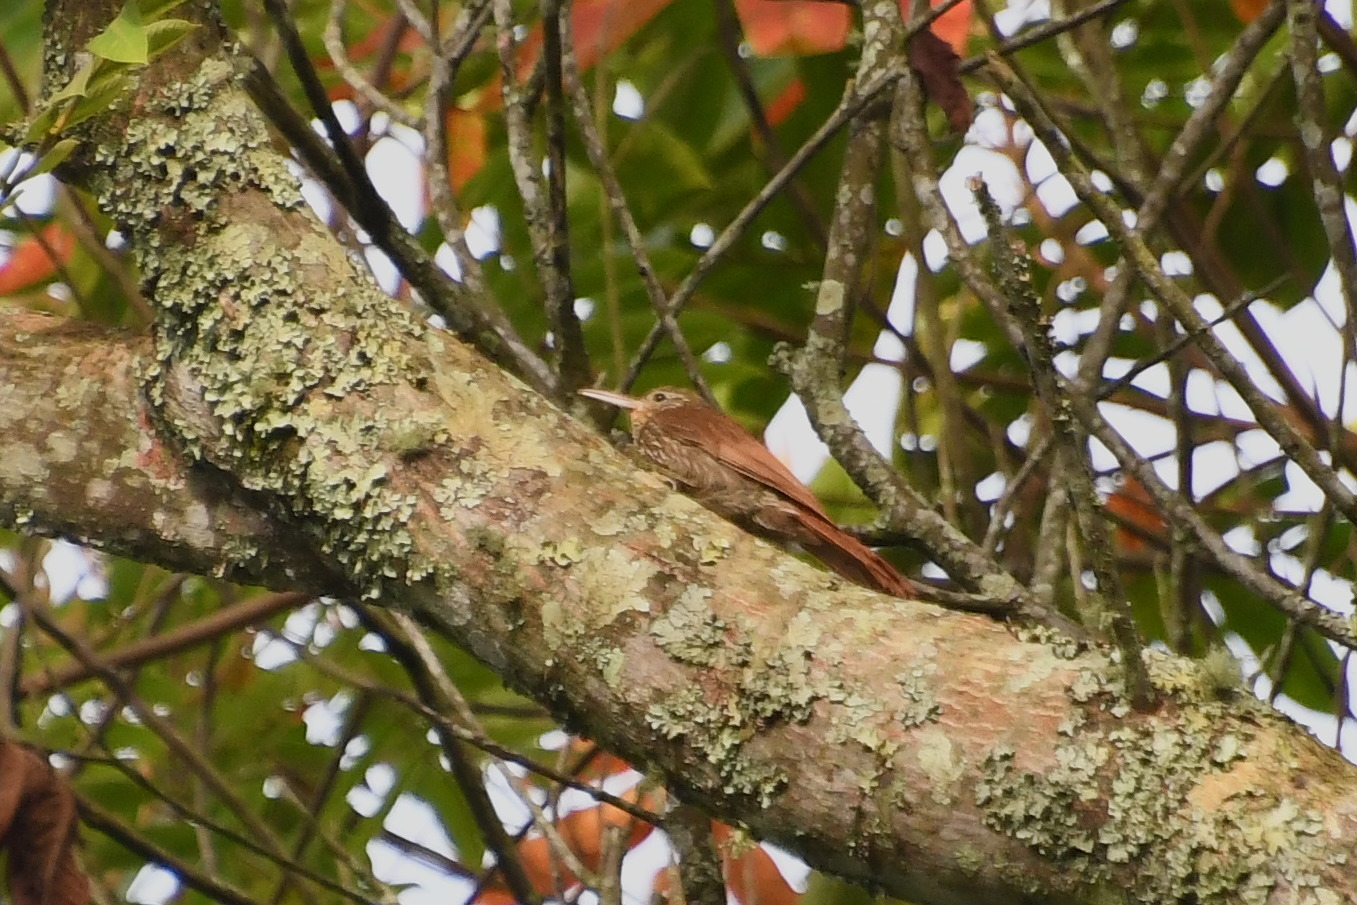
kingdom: Animalia
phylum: Chordata
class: Aves
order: Passeriformes
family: Furnariidae
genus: Lepidocolaptes
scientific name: Lepidocolaptes souleyetii
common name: Streak-headed woodcreeper
